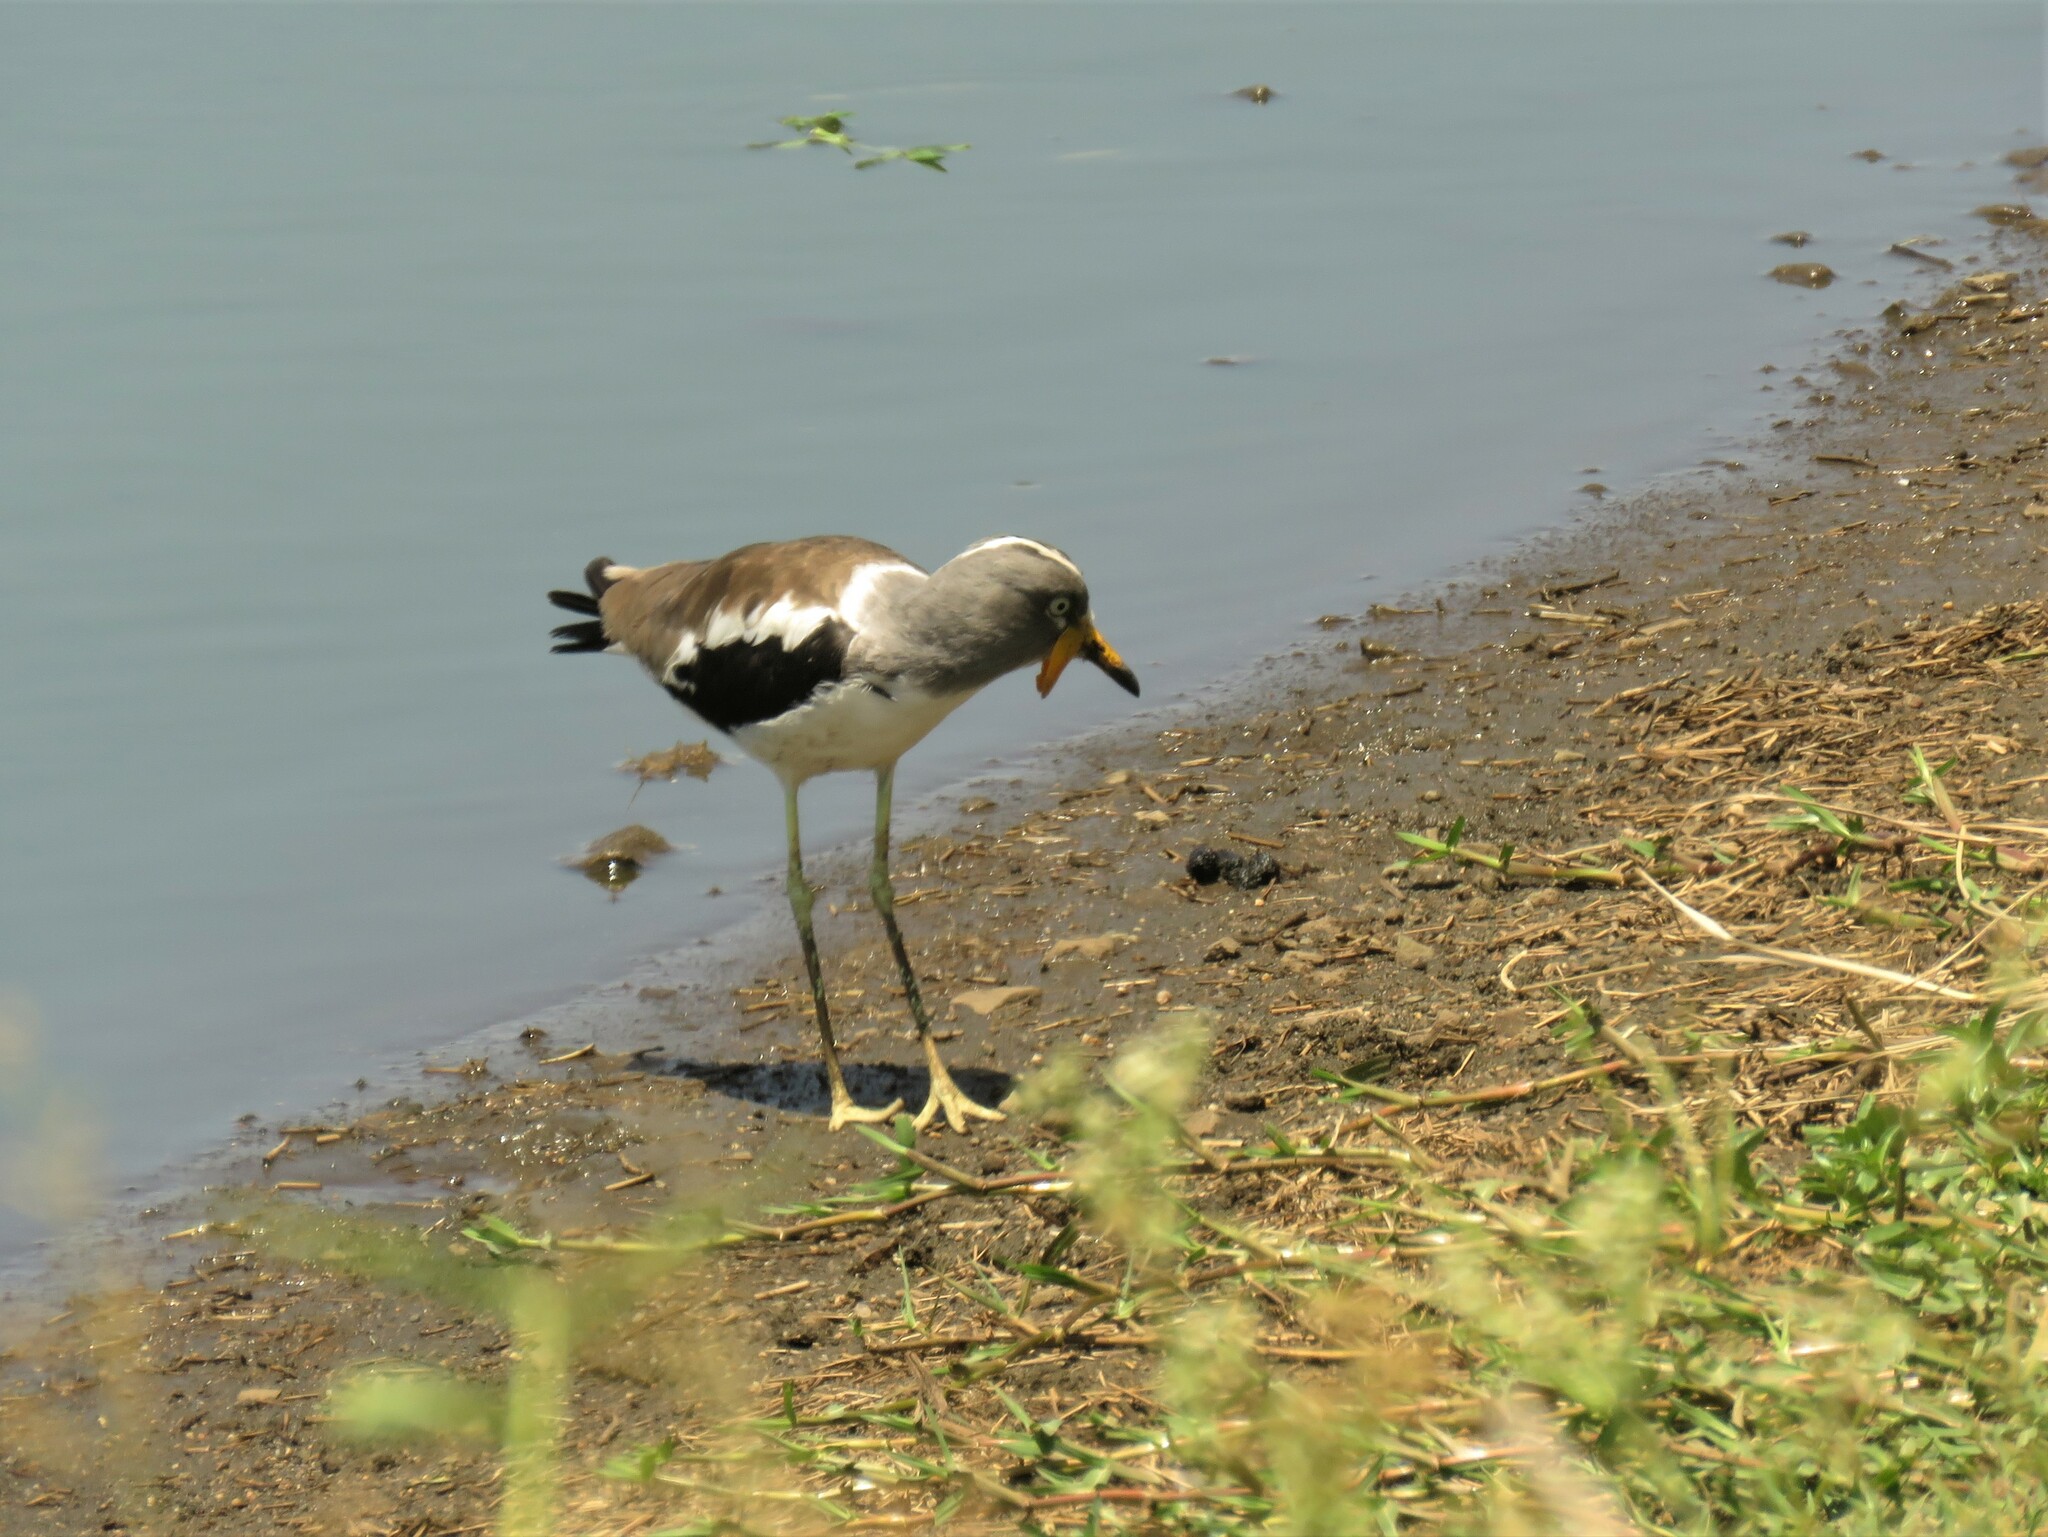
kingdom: Animalia
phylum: Chordata
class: Aves
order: Charadriiformes
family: Charadriidae
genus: Vanellus
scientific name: Vanellus albiceps
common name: White-crowned lapwing
